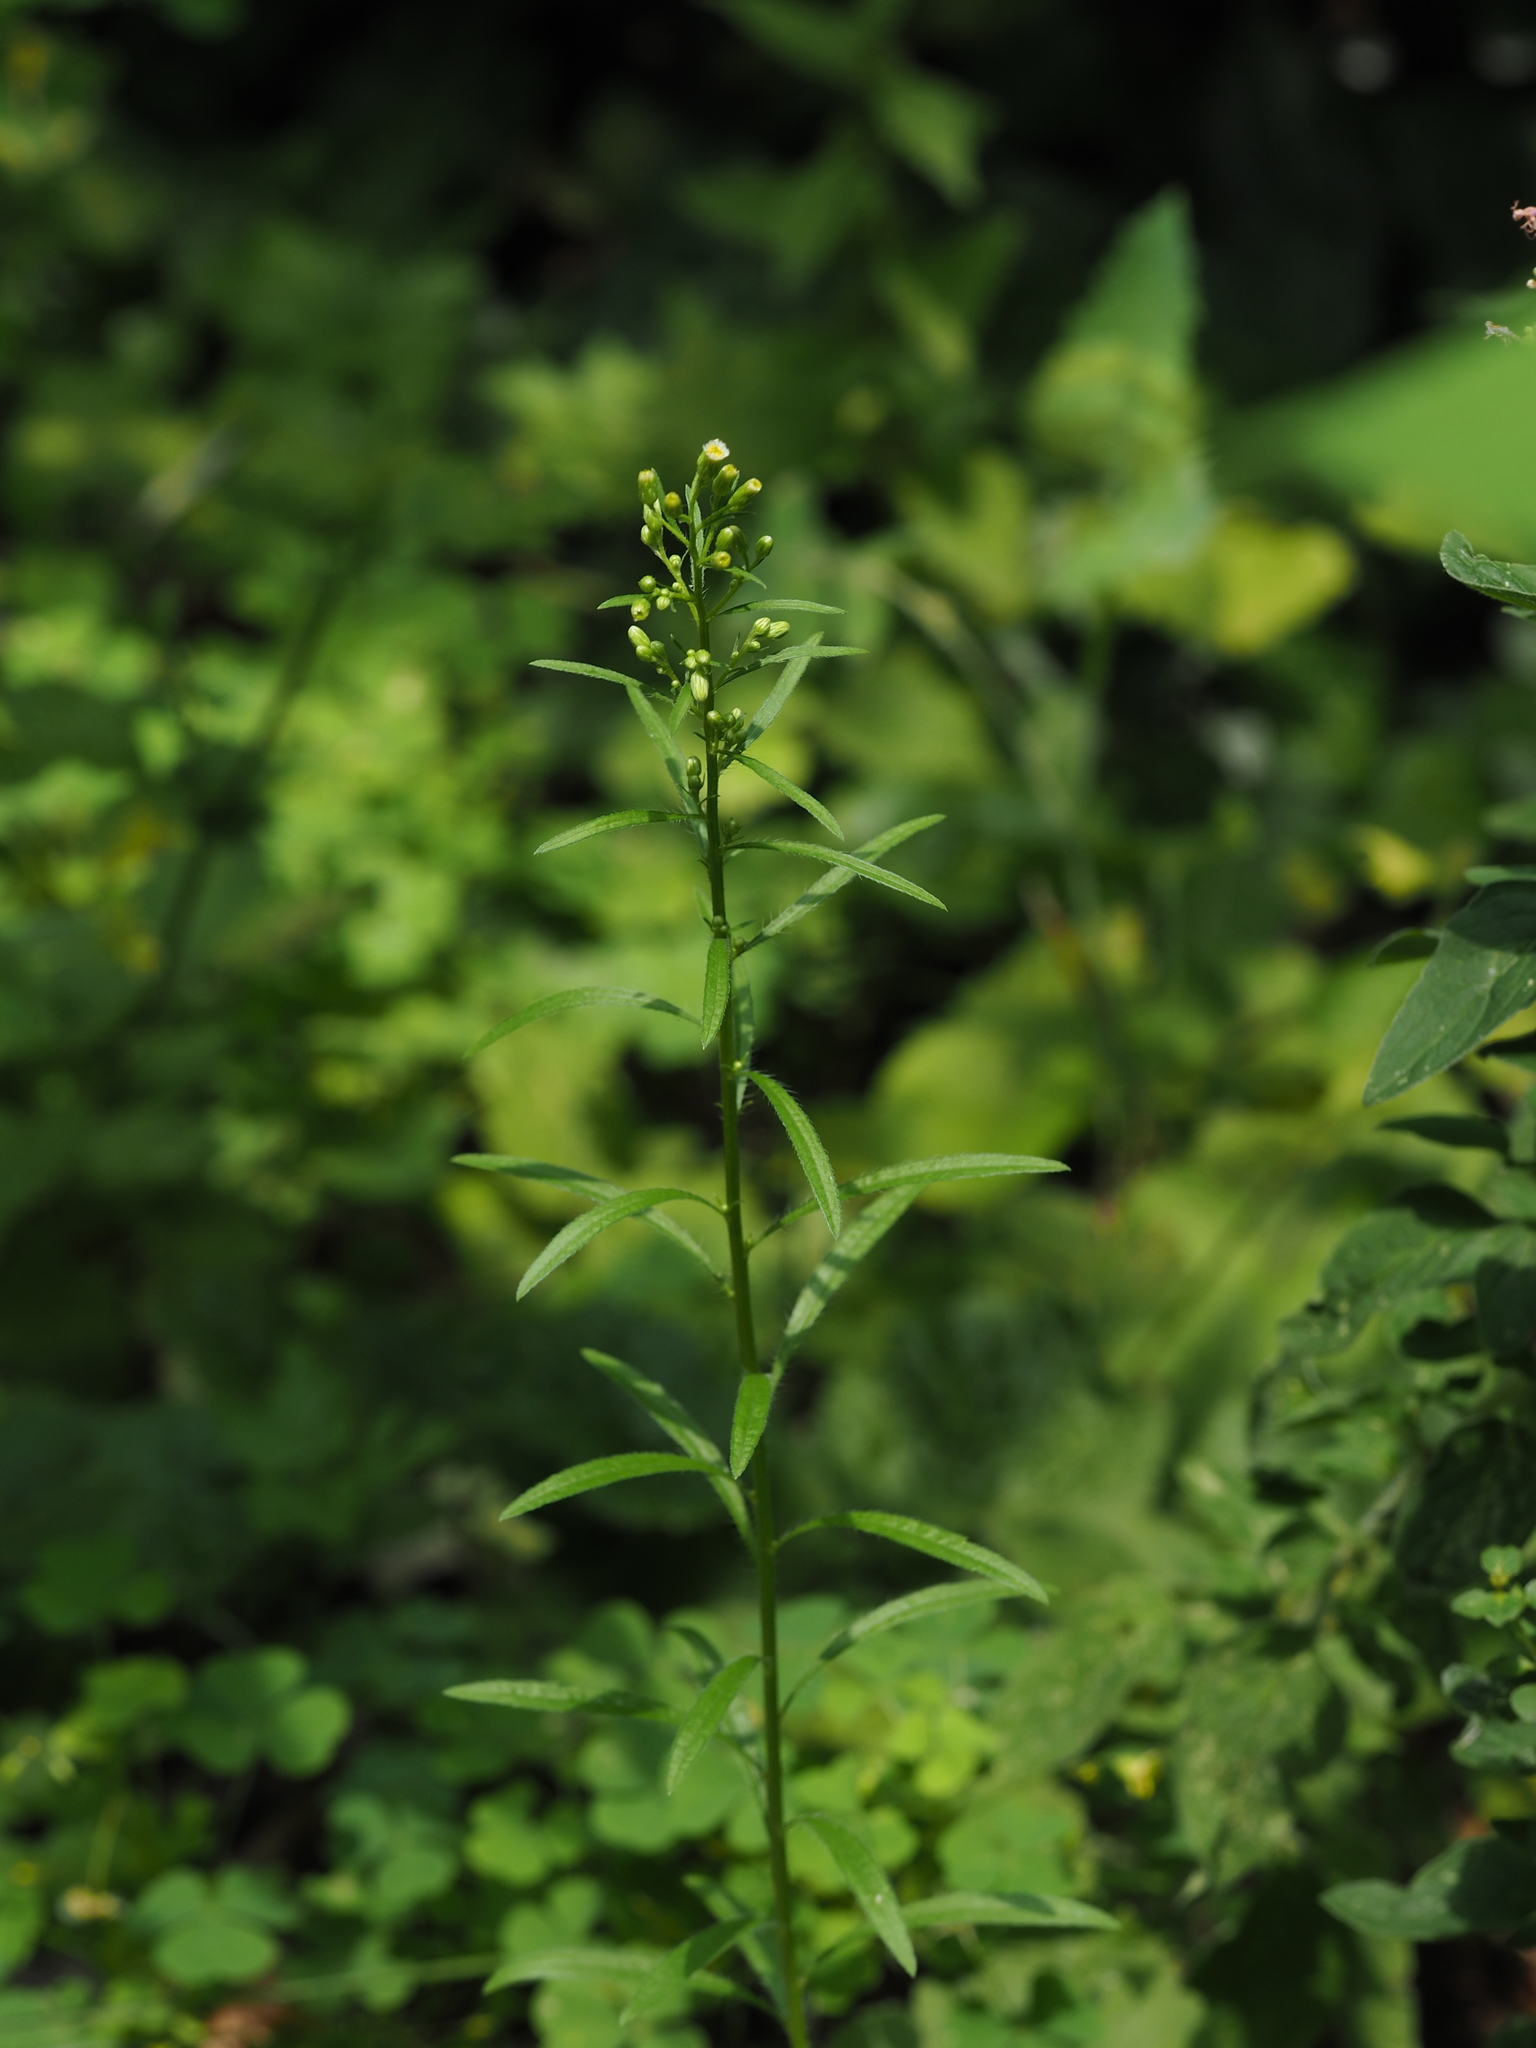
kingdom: Plantae
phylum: Tracheophyta
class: Magnoliopsida
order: Asterales
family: Asteraceae
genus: Erigeron
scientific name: Erigeron canadensis
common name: Canadian fleabane
